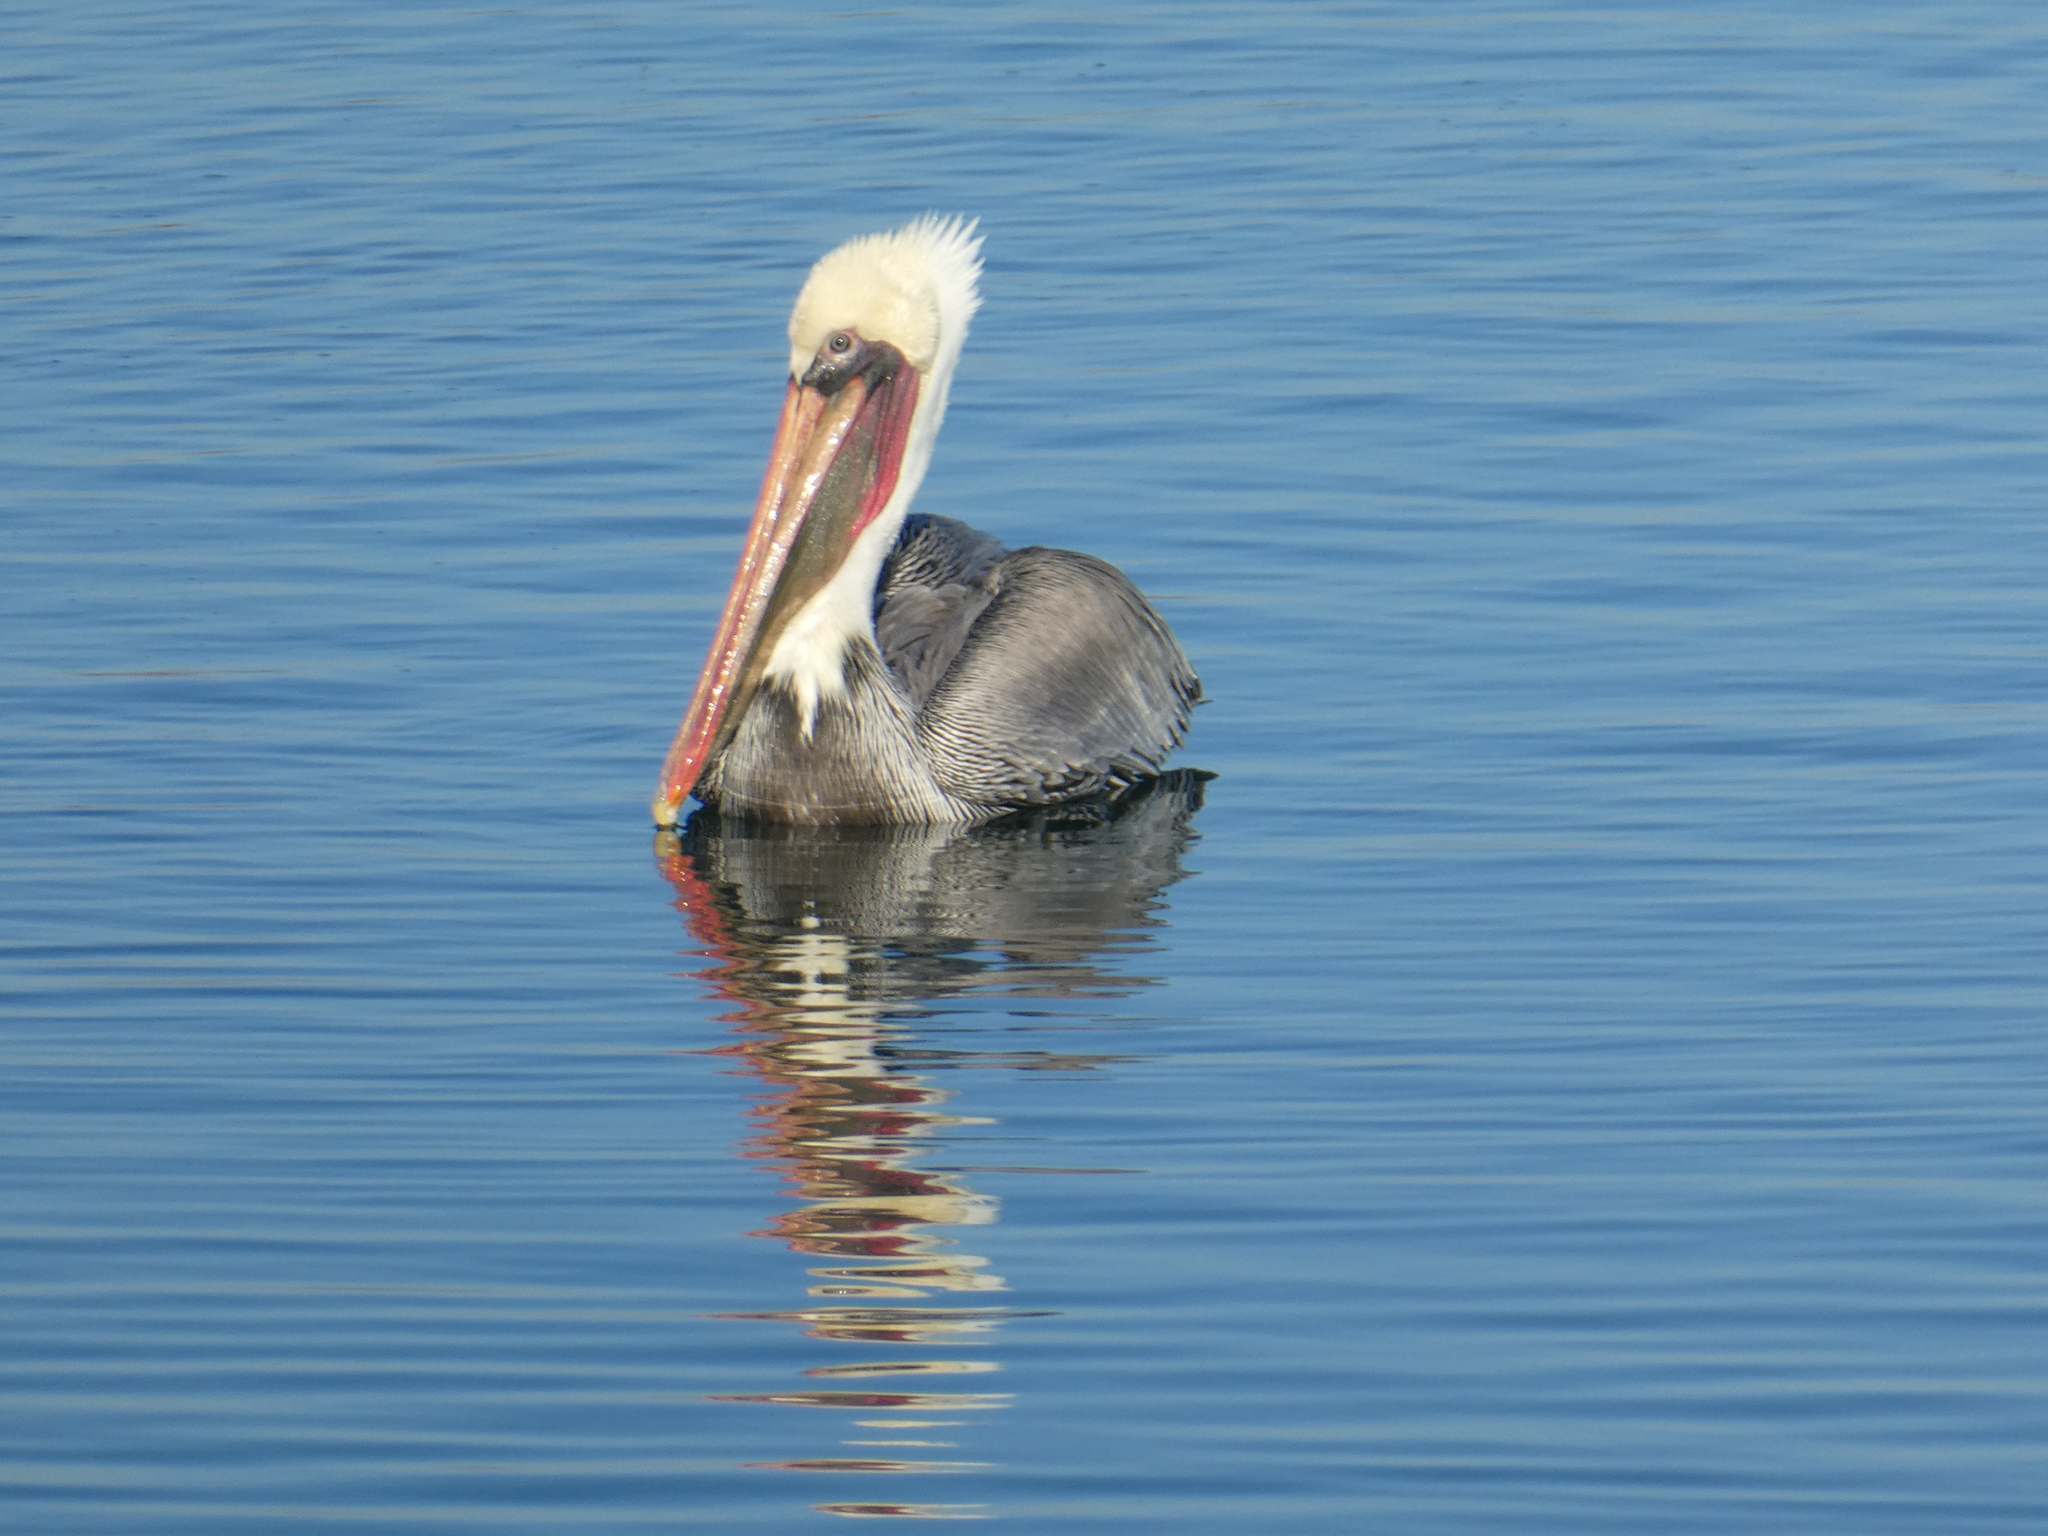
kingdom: Animalia
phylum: Chordata
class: Aves
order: Pelecaniformes
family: Pelecanidae
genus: Pelecanus
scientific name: Pelecanus occidentalis
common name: Brown pelican
